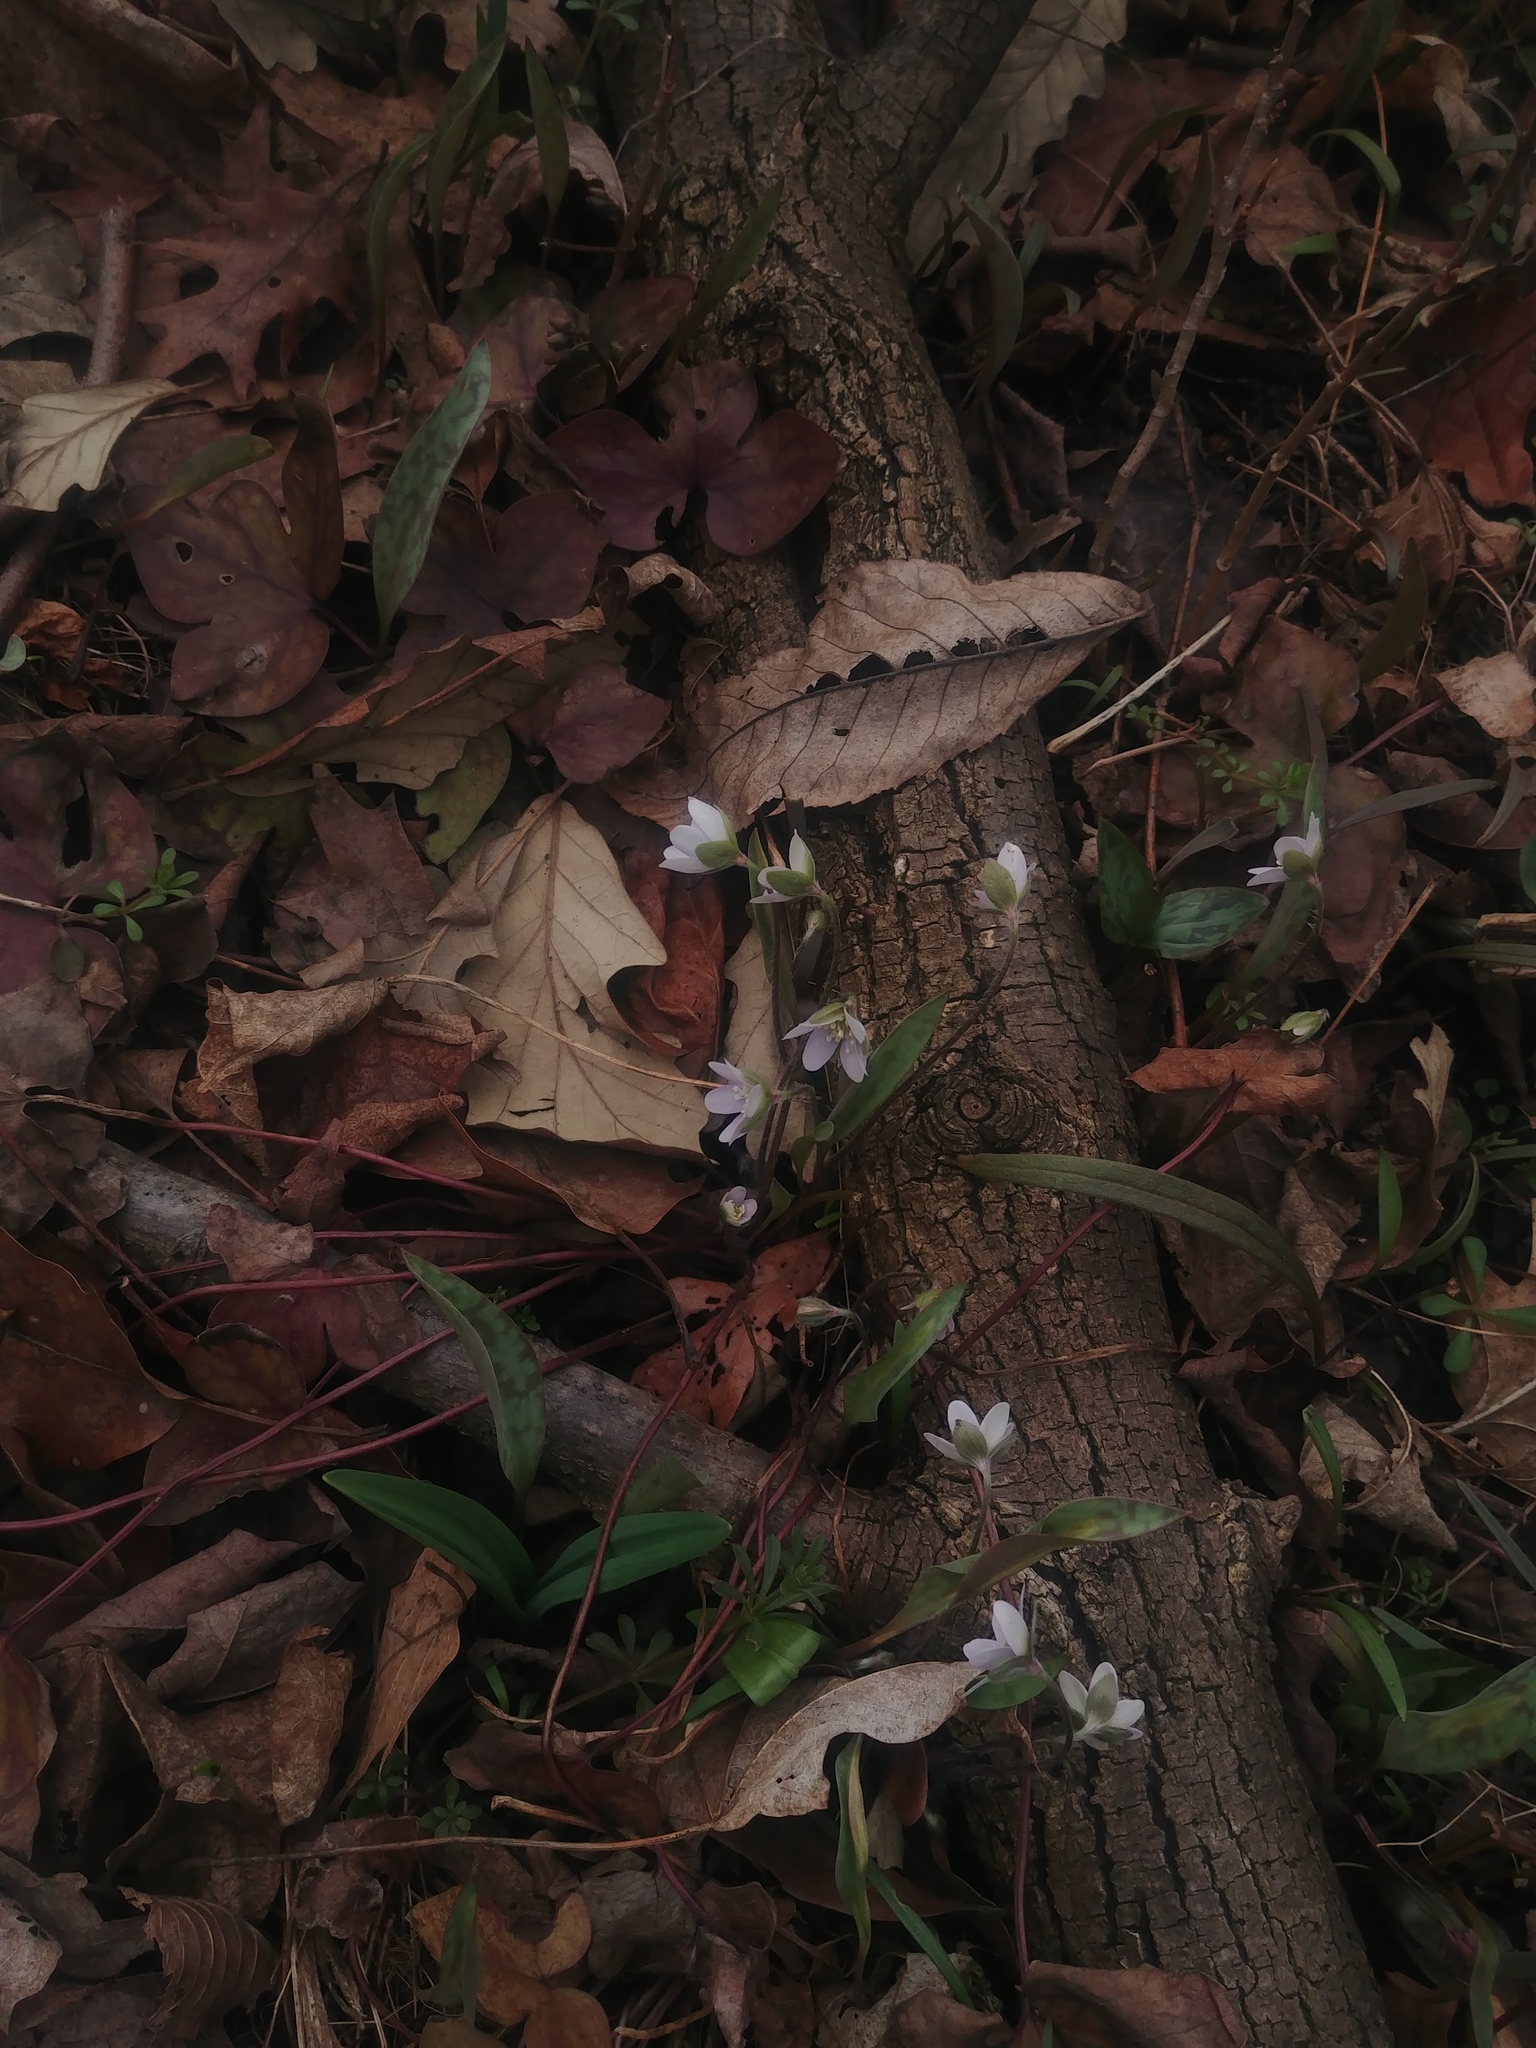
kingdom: Plantae
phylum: Tracheophyta
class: Magnoliopsida
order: Ranunculales
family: Ranunculaceae
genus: Hepatica
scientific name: Hepatica acutiloba
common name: Sharp-lobed hepatica
